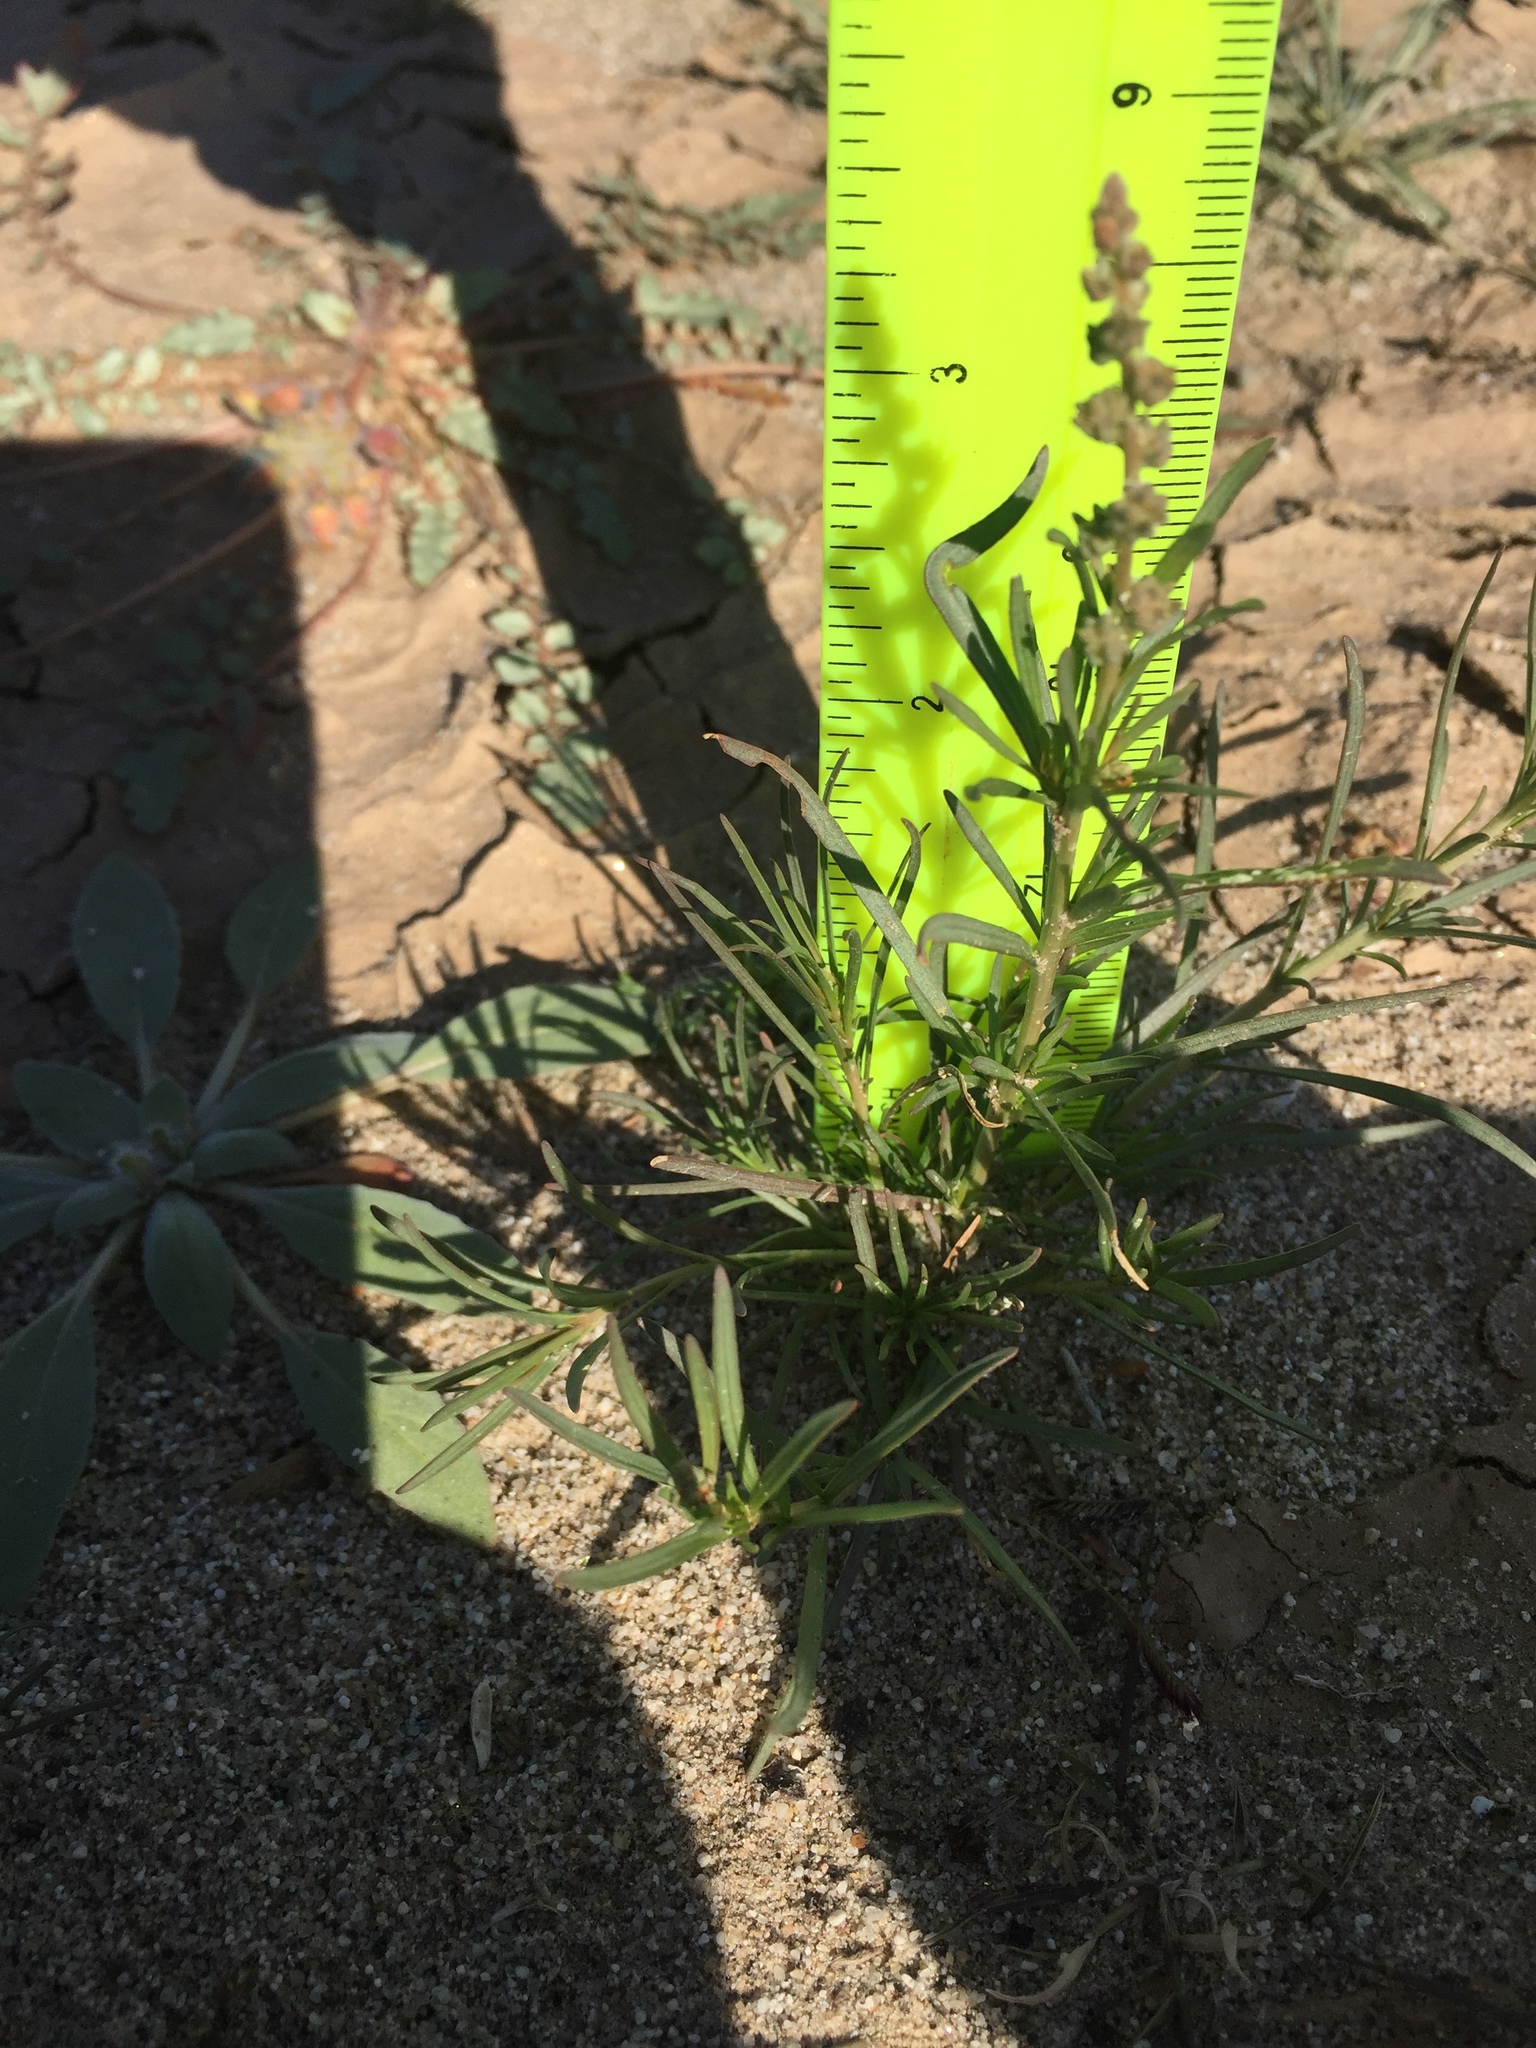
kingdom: Plantae
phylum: Tracheophyta
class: Magnoliopsida
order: Brassicales
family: Resedaceae
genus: Oligomeris
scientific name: Oligomeris linifolia
